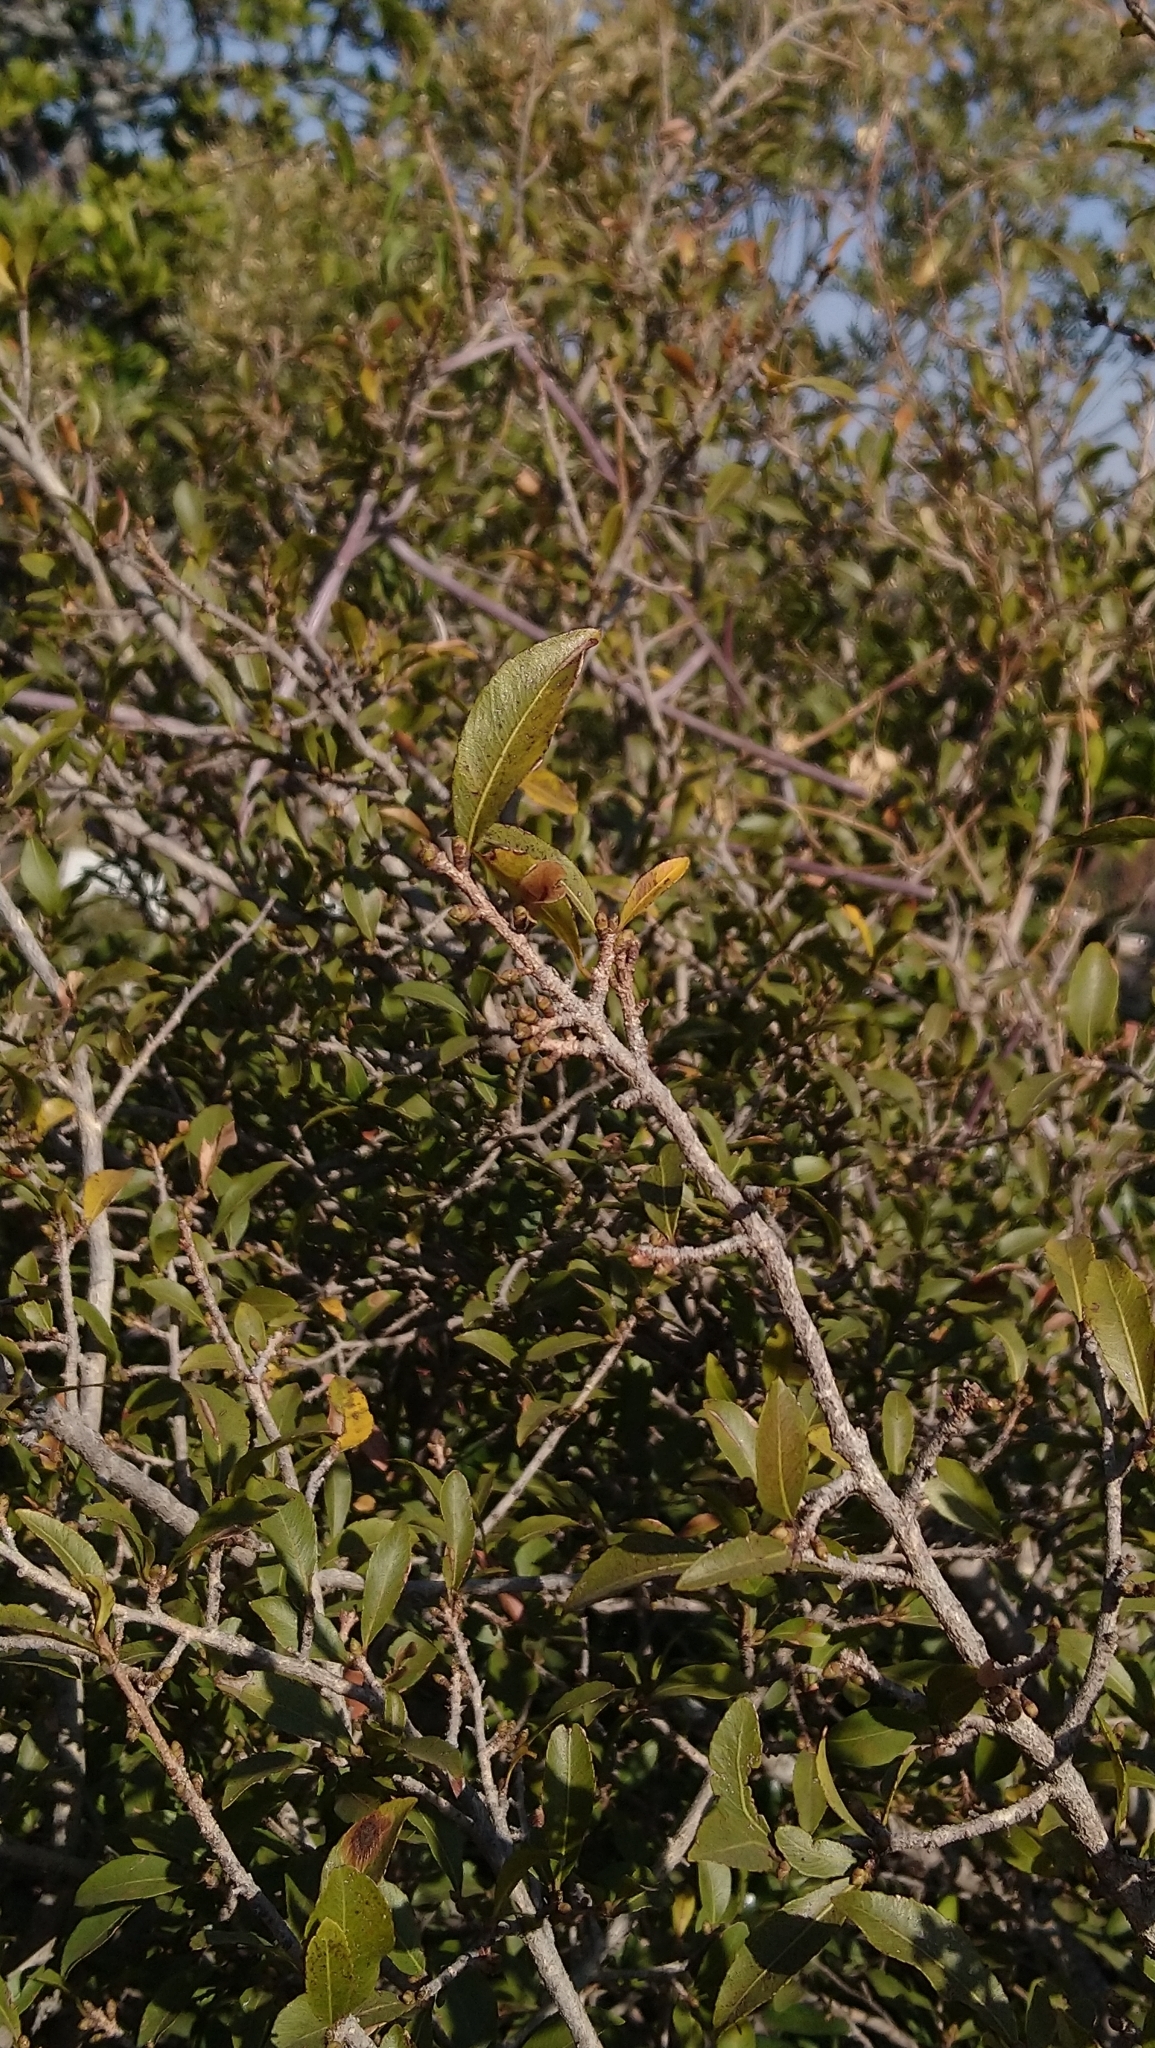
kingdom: Plantae
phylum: Tracheophyta
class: Magnoliopsida
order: Malpighiales
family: Ochnaceae
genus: Ochna
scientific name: Ochna pretoriensis
